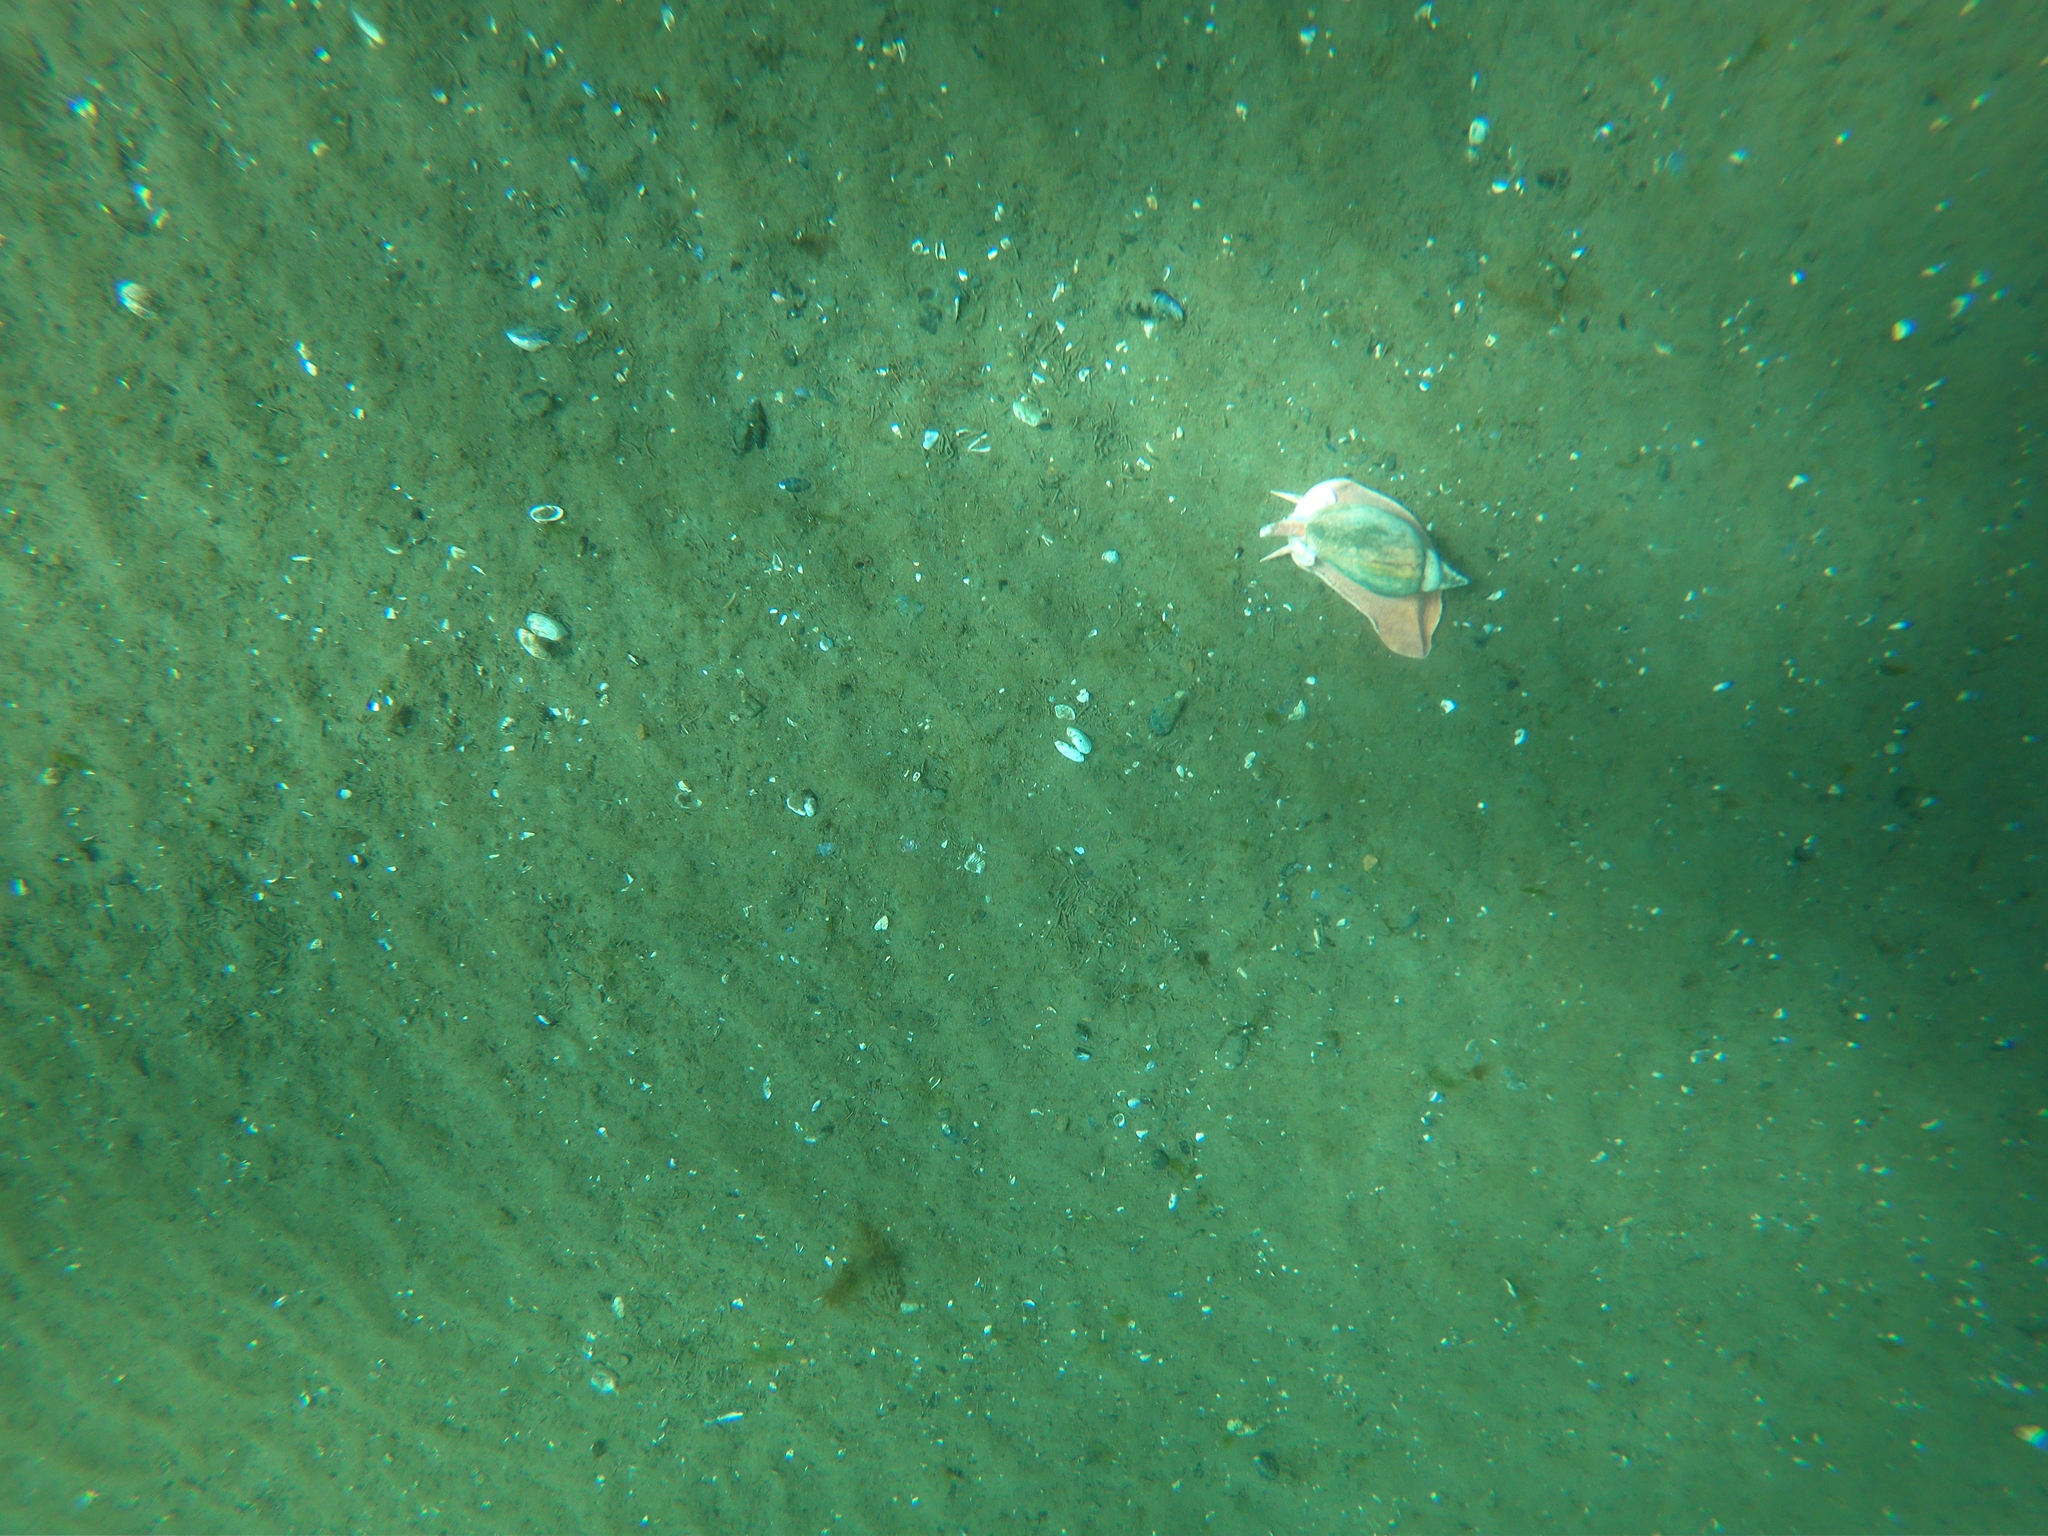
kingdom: Animalia
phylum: Mollusca
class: Gastropoda
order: Neogastropoda
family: Volutidae
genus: Odontocymbiola
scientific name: Odontocymbiola magellanica
